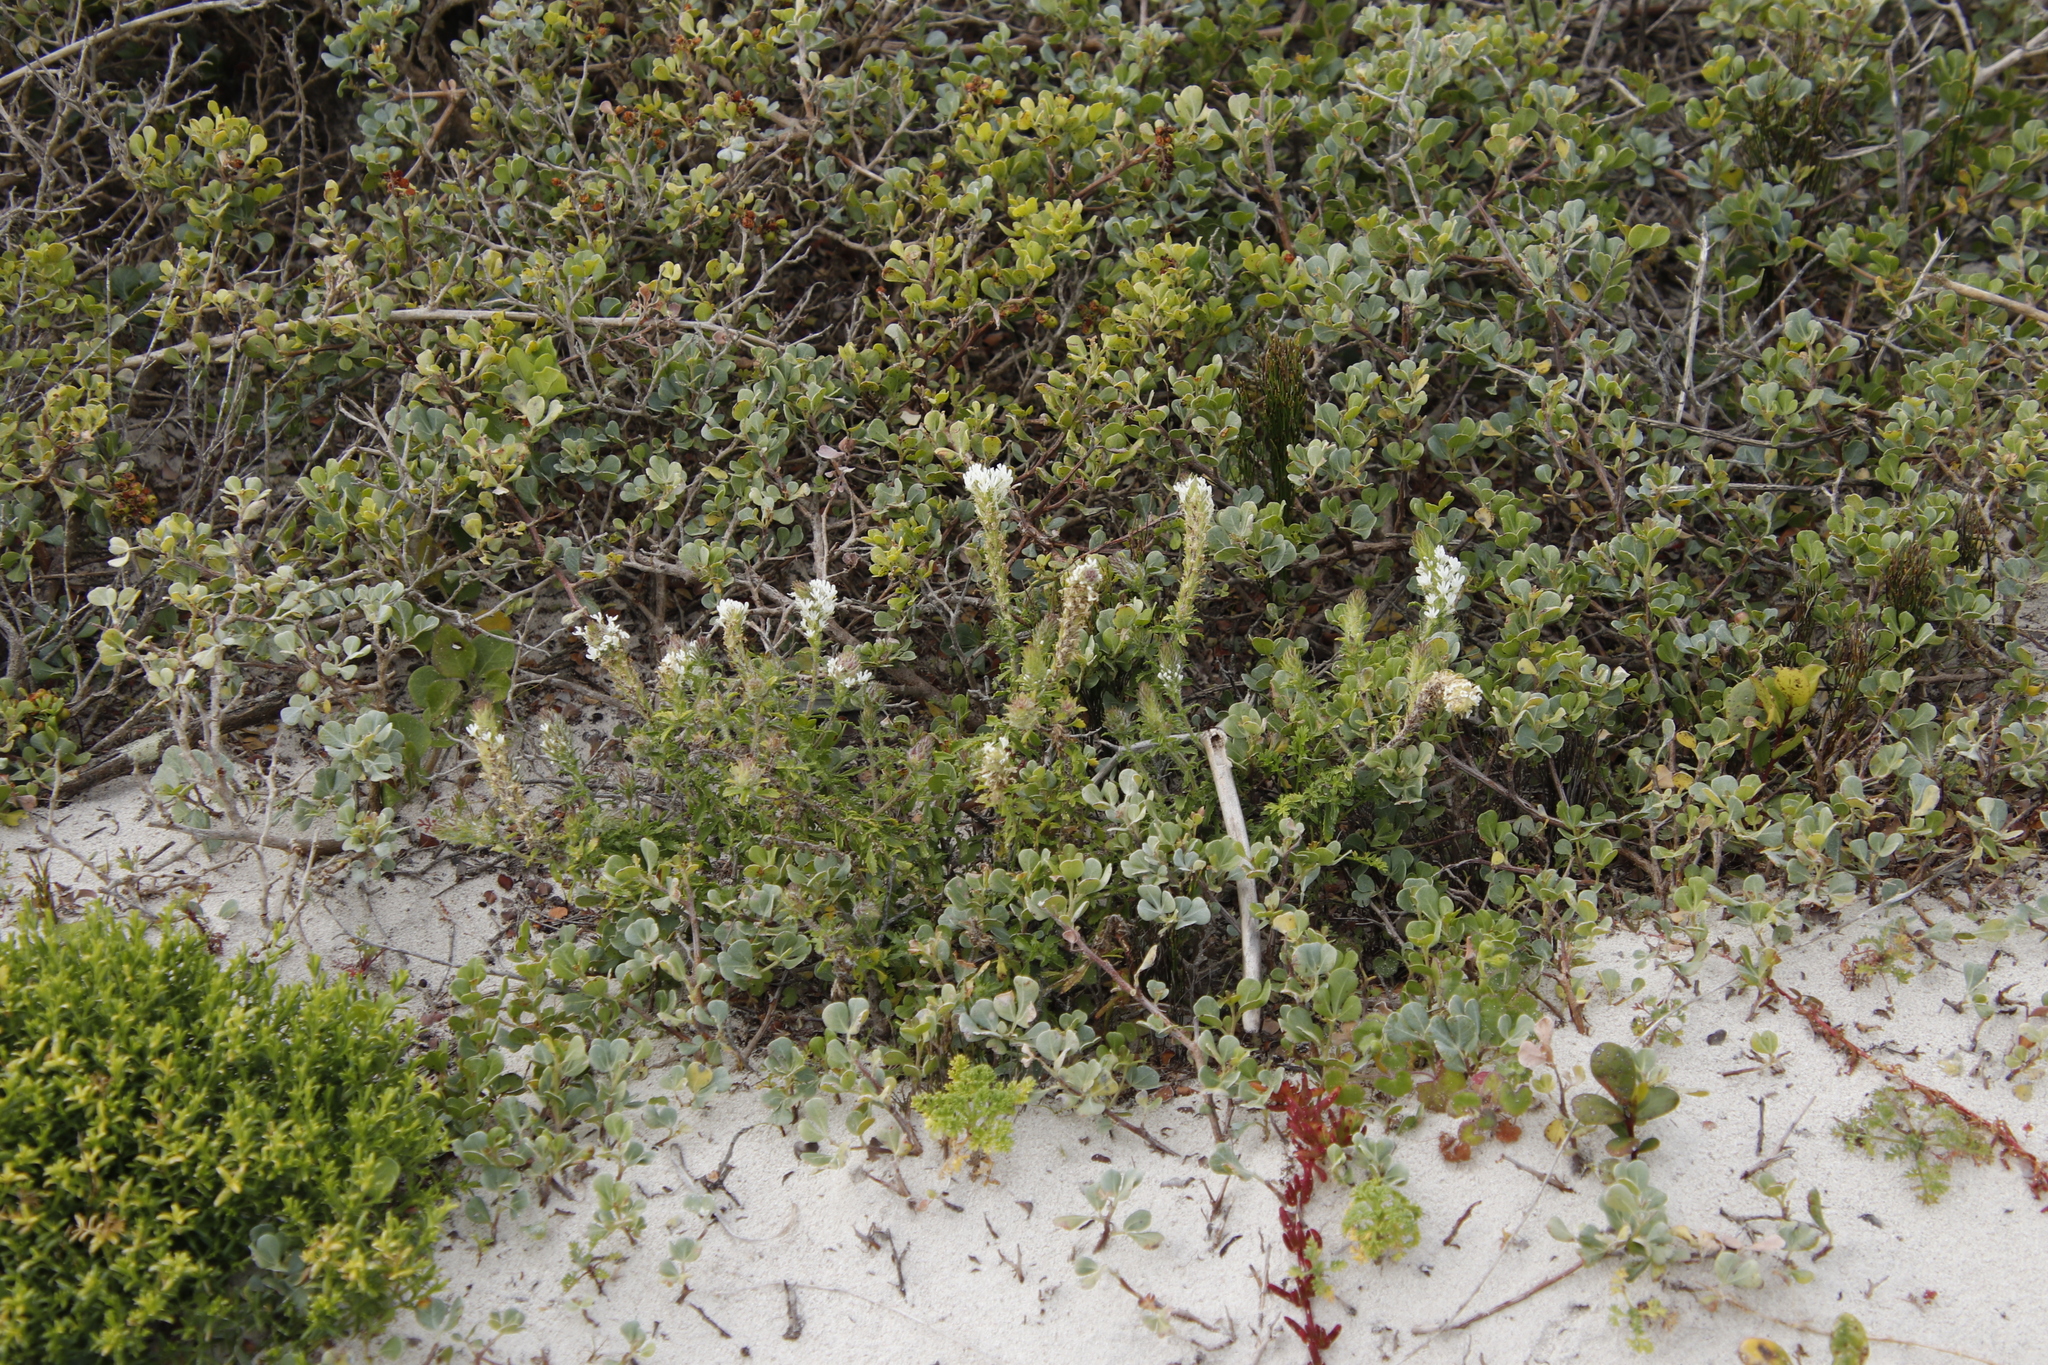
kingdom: Plantae
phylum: Tracheophyta
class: Magnoliopsida
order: Lamiales
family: Scrophulariaceae
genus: Dischisma
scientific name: Dischisma ciliatum
